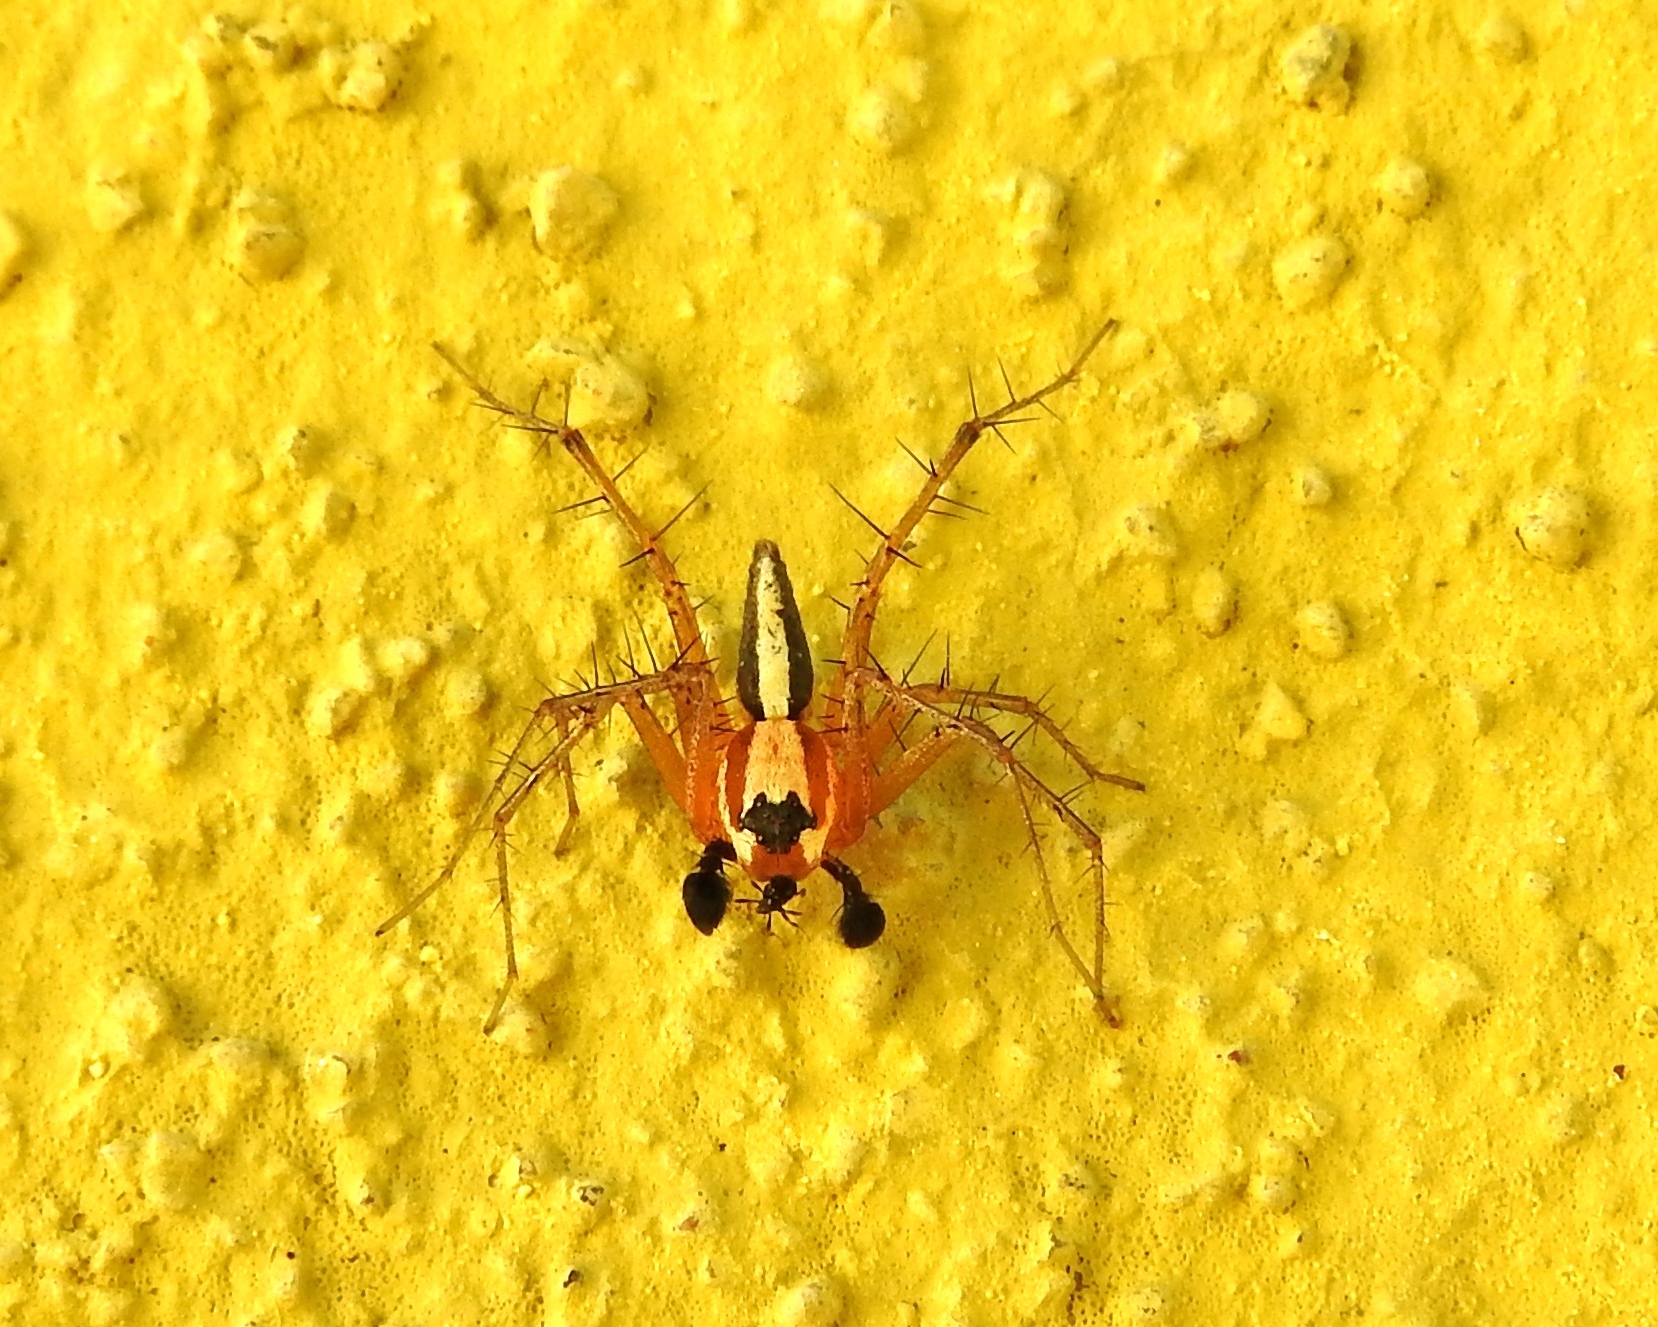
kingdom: Animalia
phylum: Arthropoda
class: Arachnida
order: Araneae
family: Oxyopidae
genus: Oxyopes
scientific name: Oxyopes
